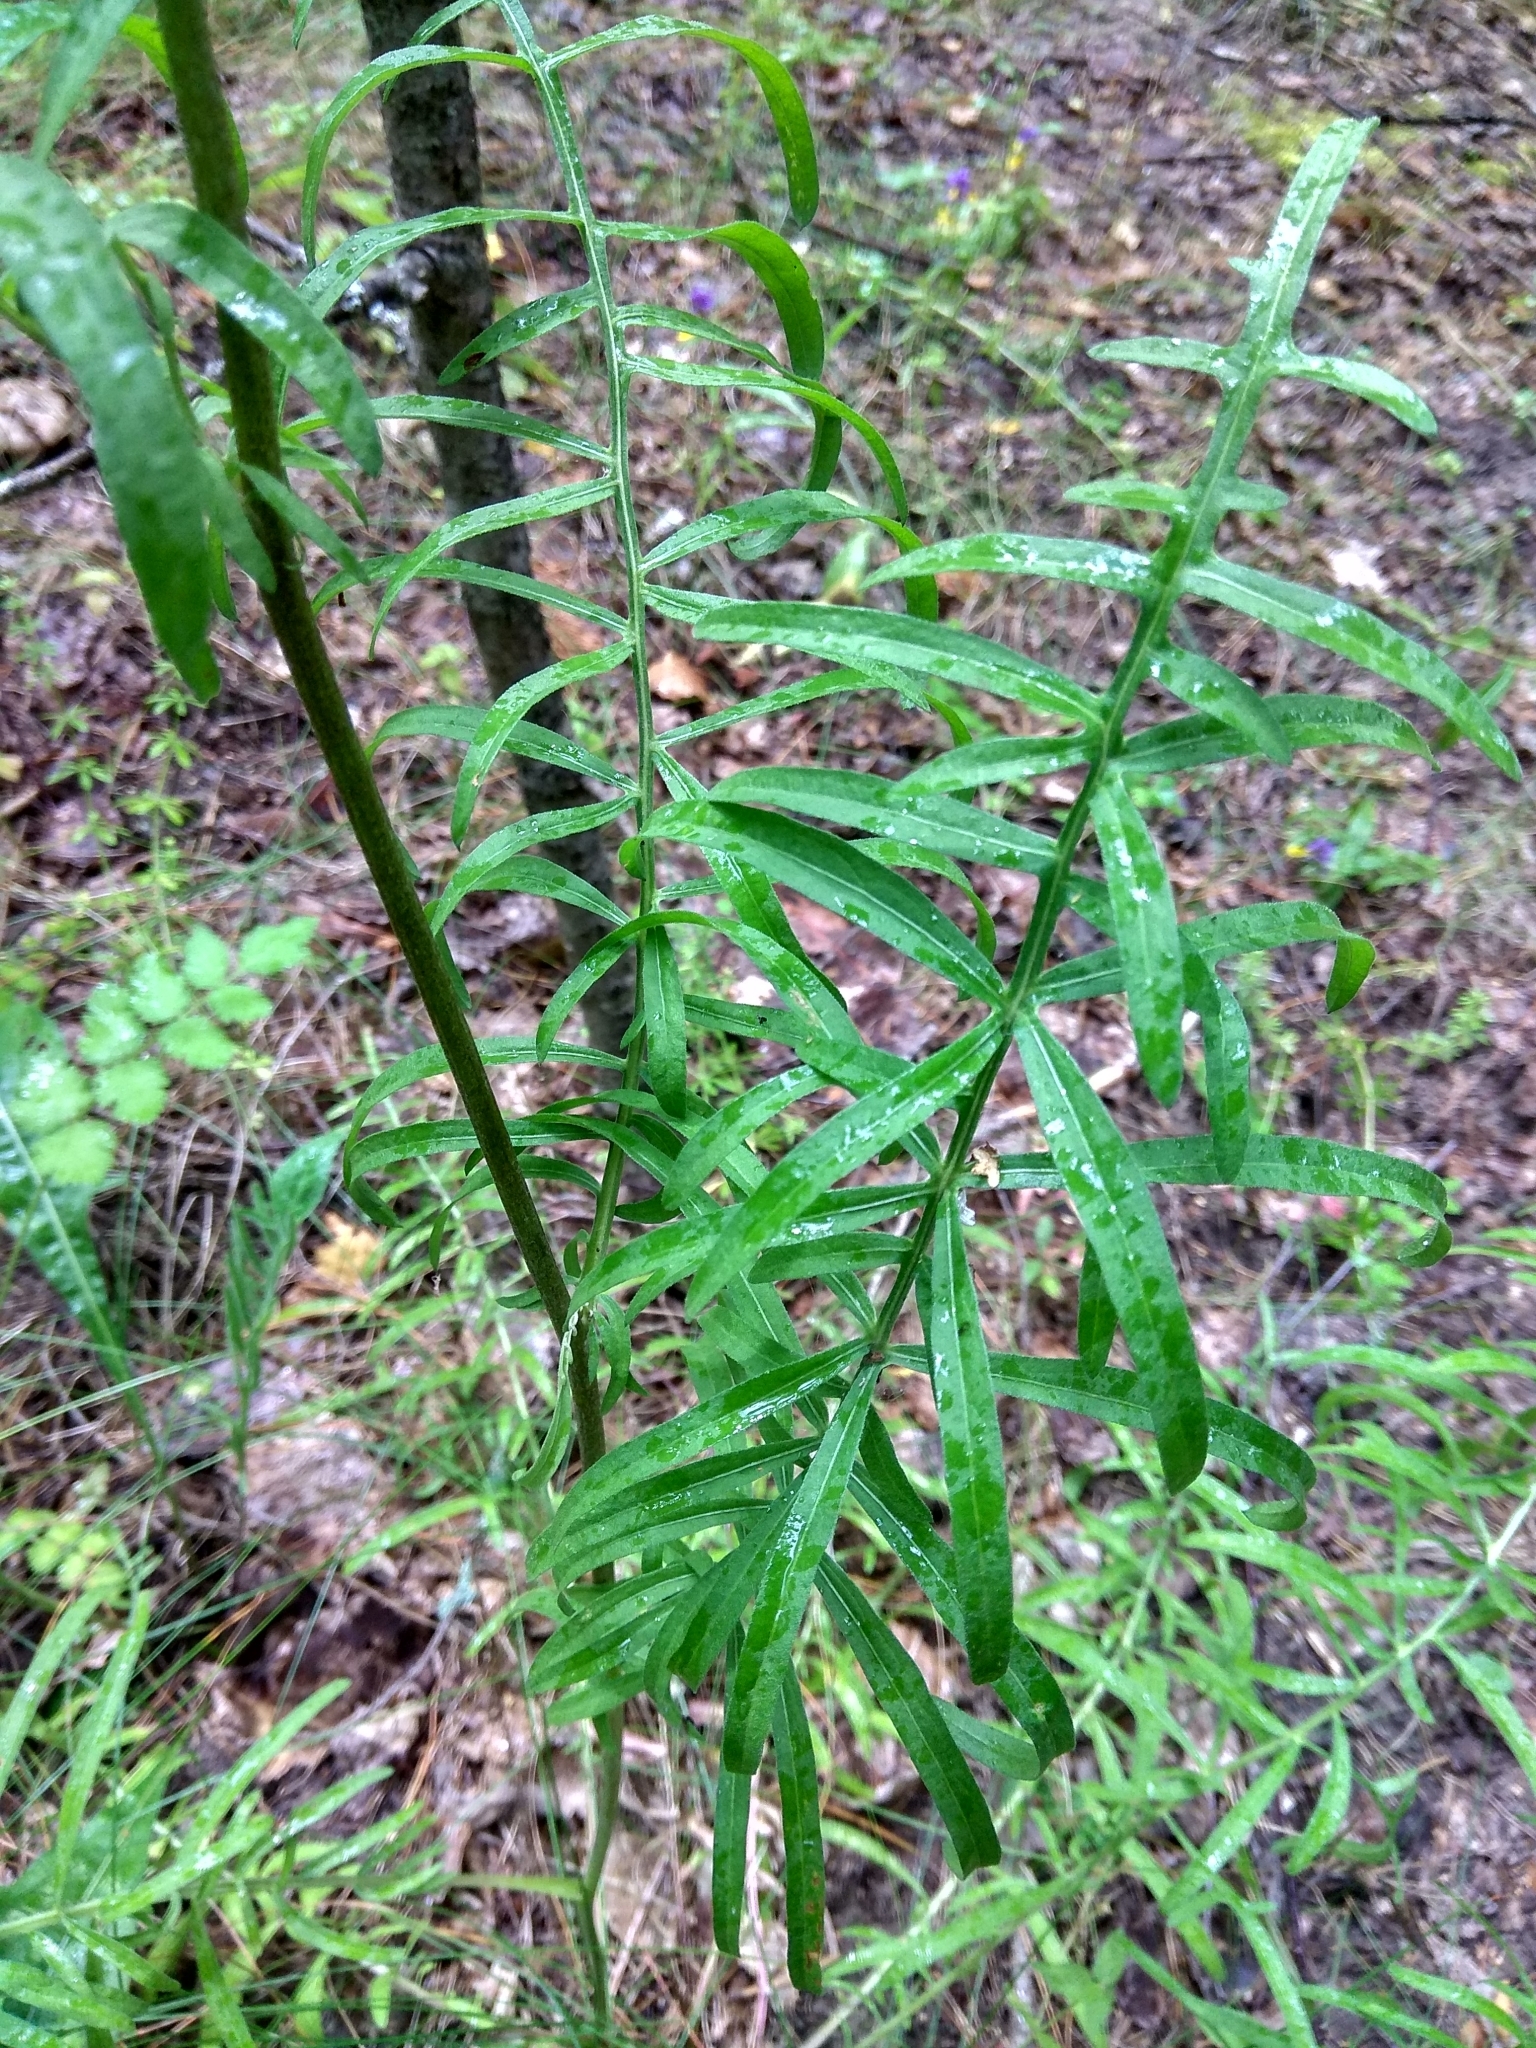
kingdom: Plantae
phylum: Tracheophyta
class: Magnoliopsida
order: Asterales
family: Asteraceae
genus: Centaurea
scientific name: Centaurea scabiosa
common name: Greater knapweed
